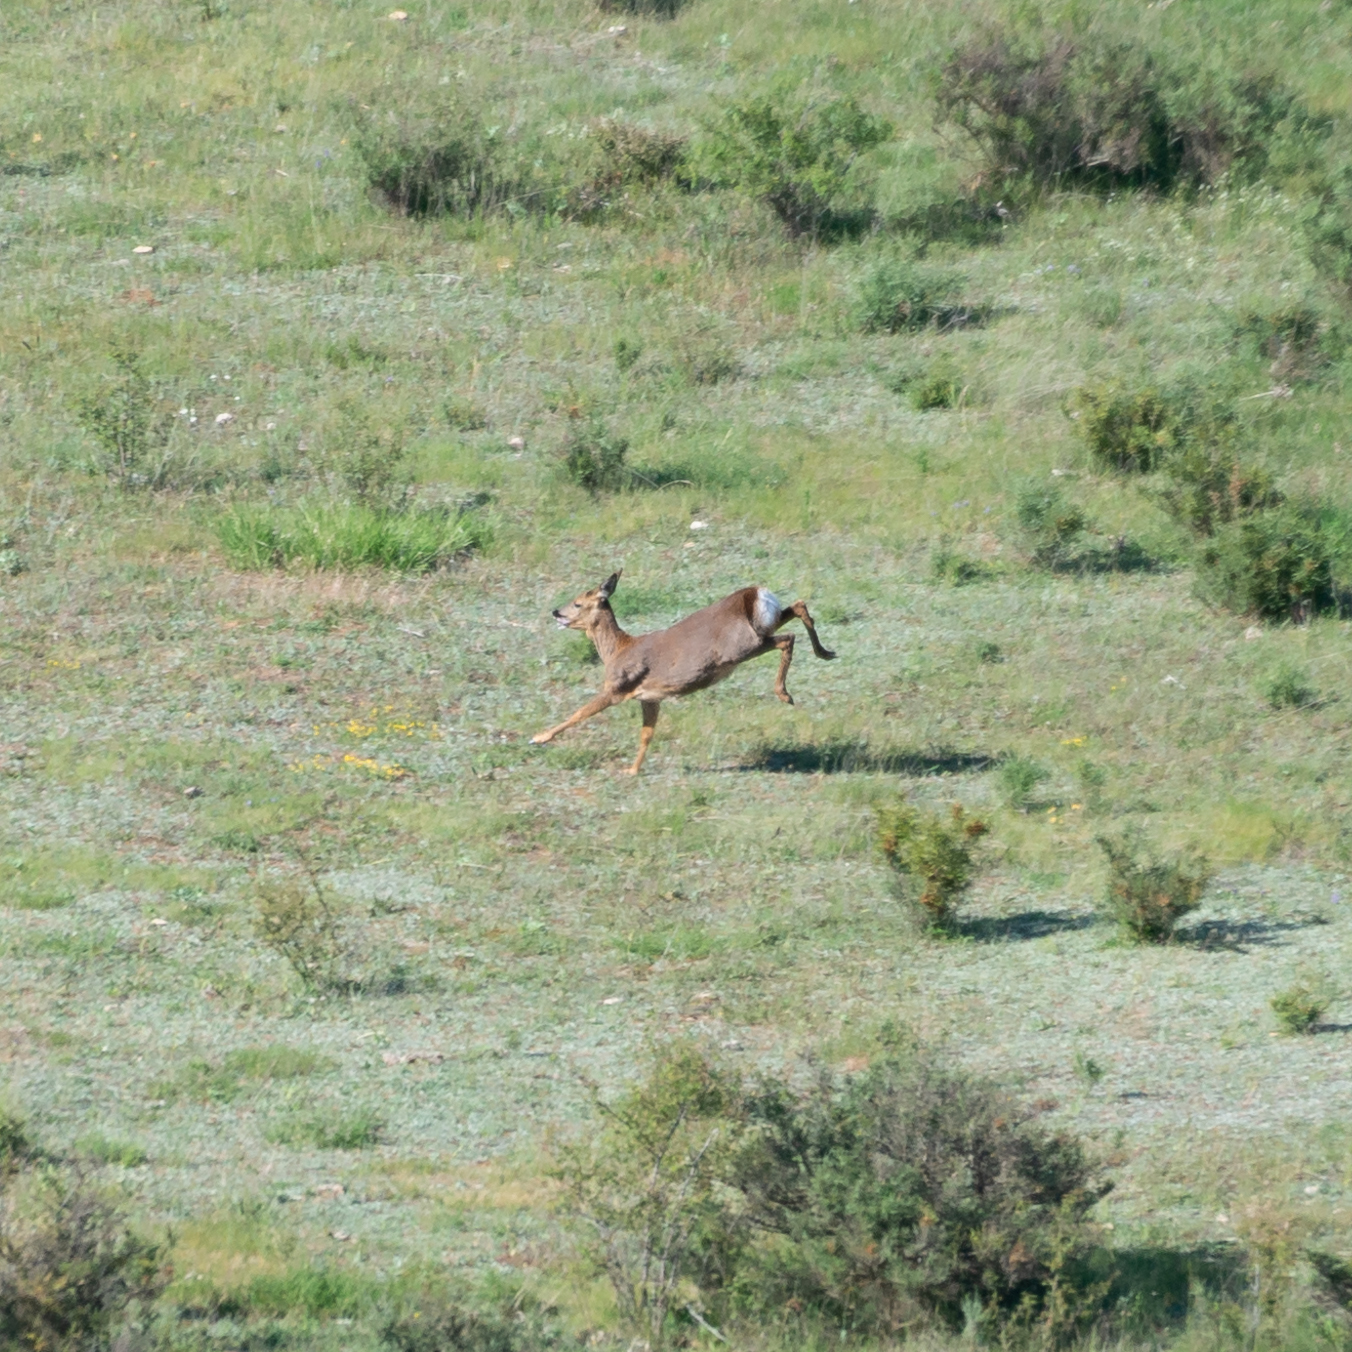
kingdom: Animalia
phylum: Chordata
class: Mammalia
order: Artiodactyla
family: Cervidae
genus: Capreolus
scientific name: Capreolus capreolus
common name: Western roe deer
